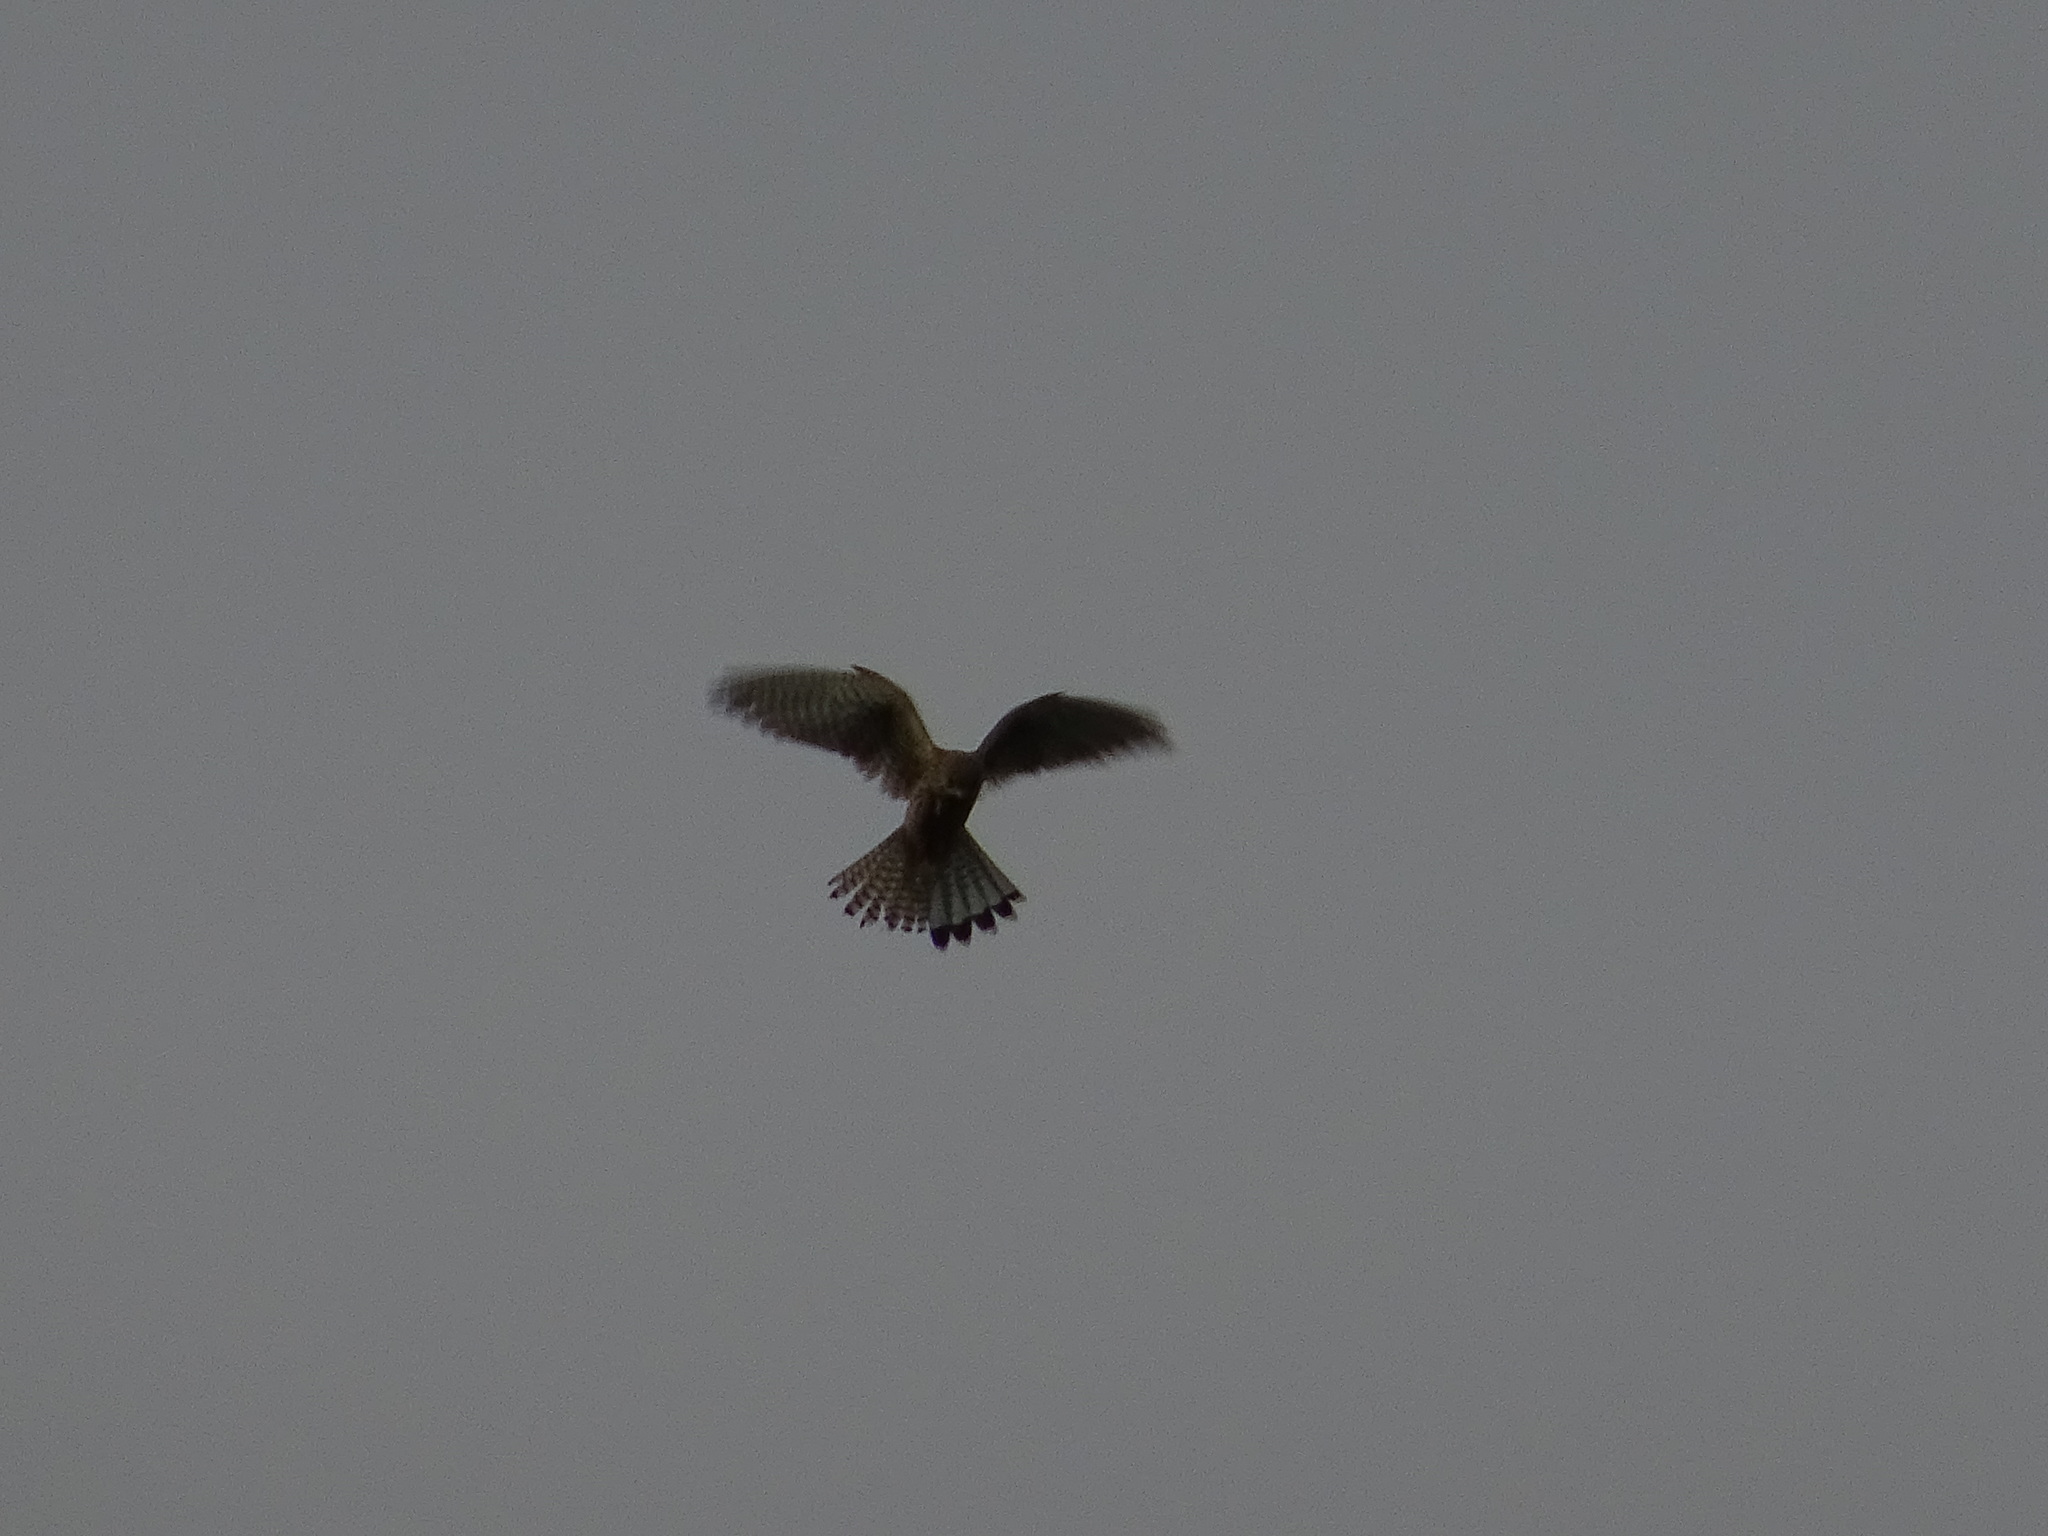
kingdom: Animalia
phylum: Chordata
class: Aves
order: Falconiformes
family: Falconidae
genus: Falco
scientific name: Falco tinnunculus
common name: Common kestrel
